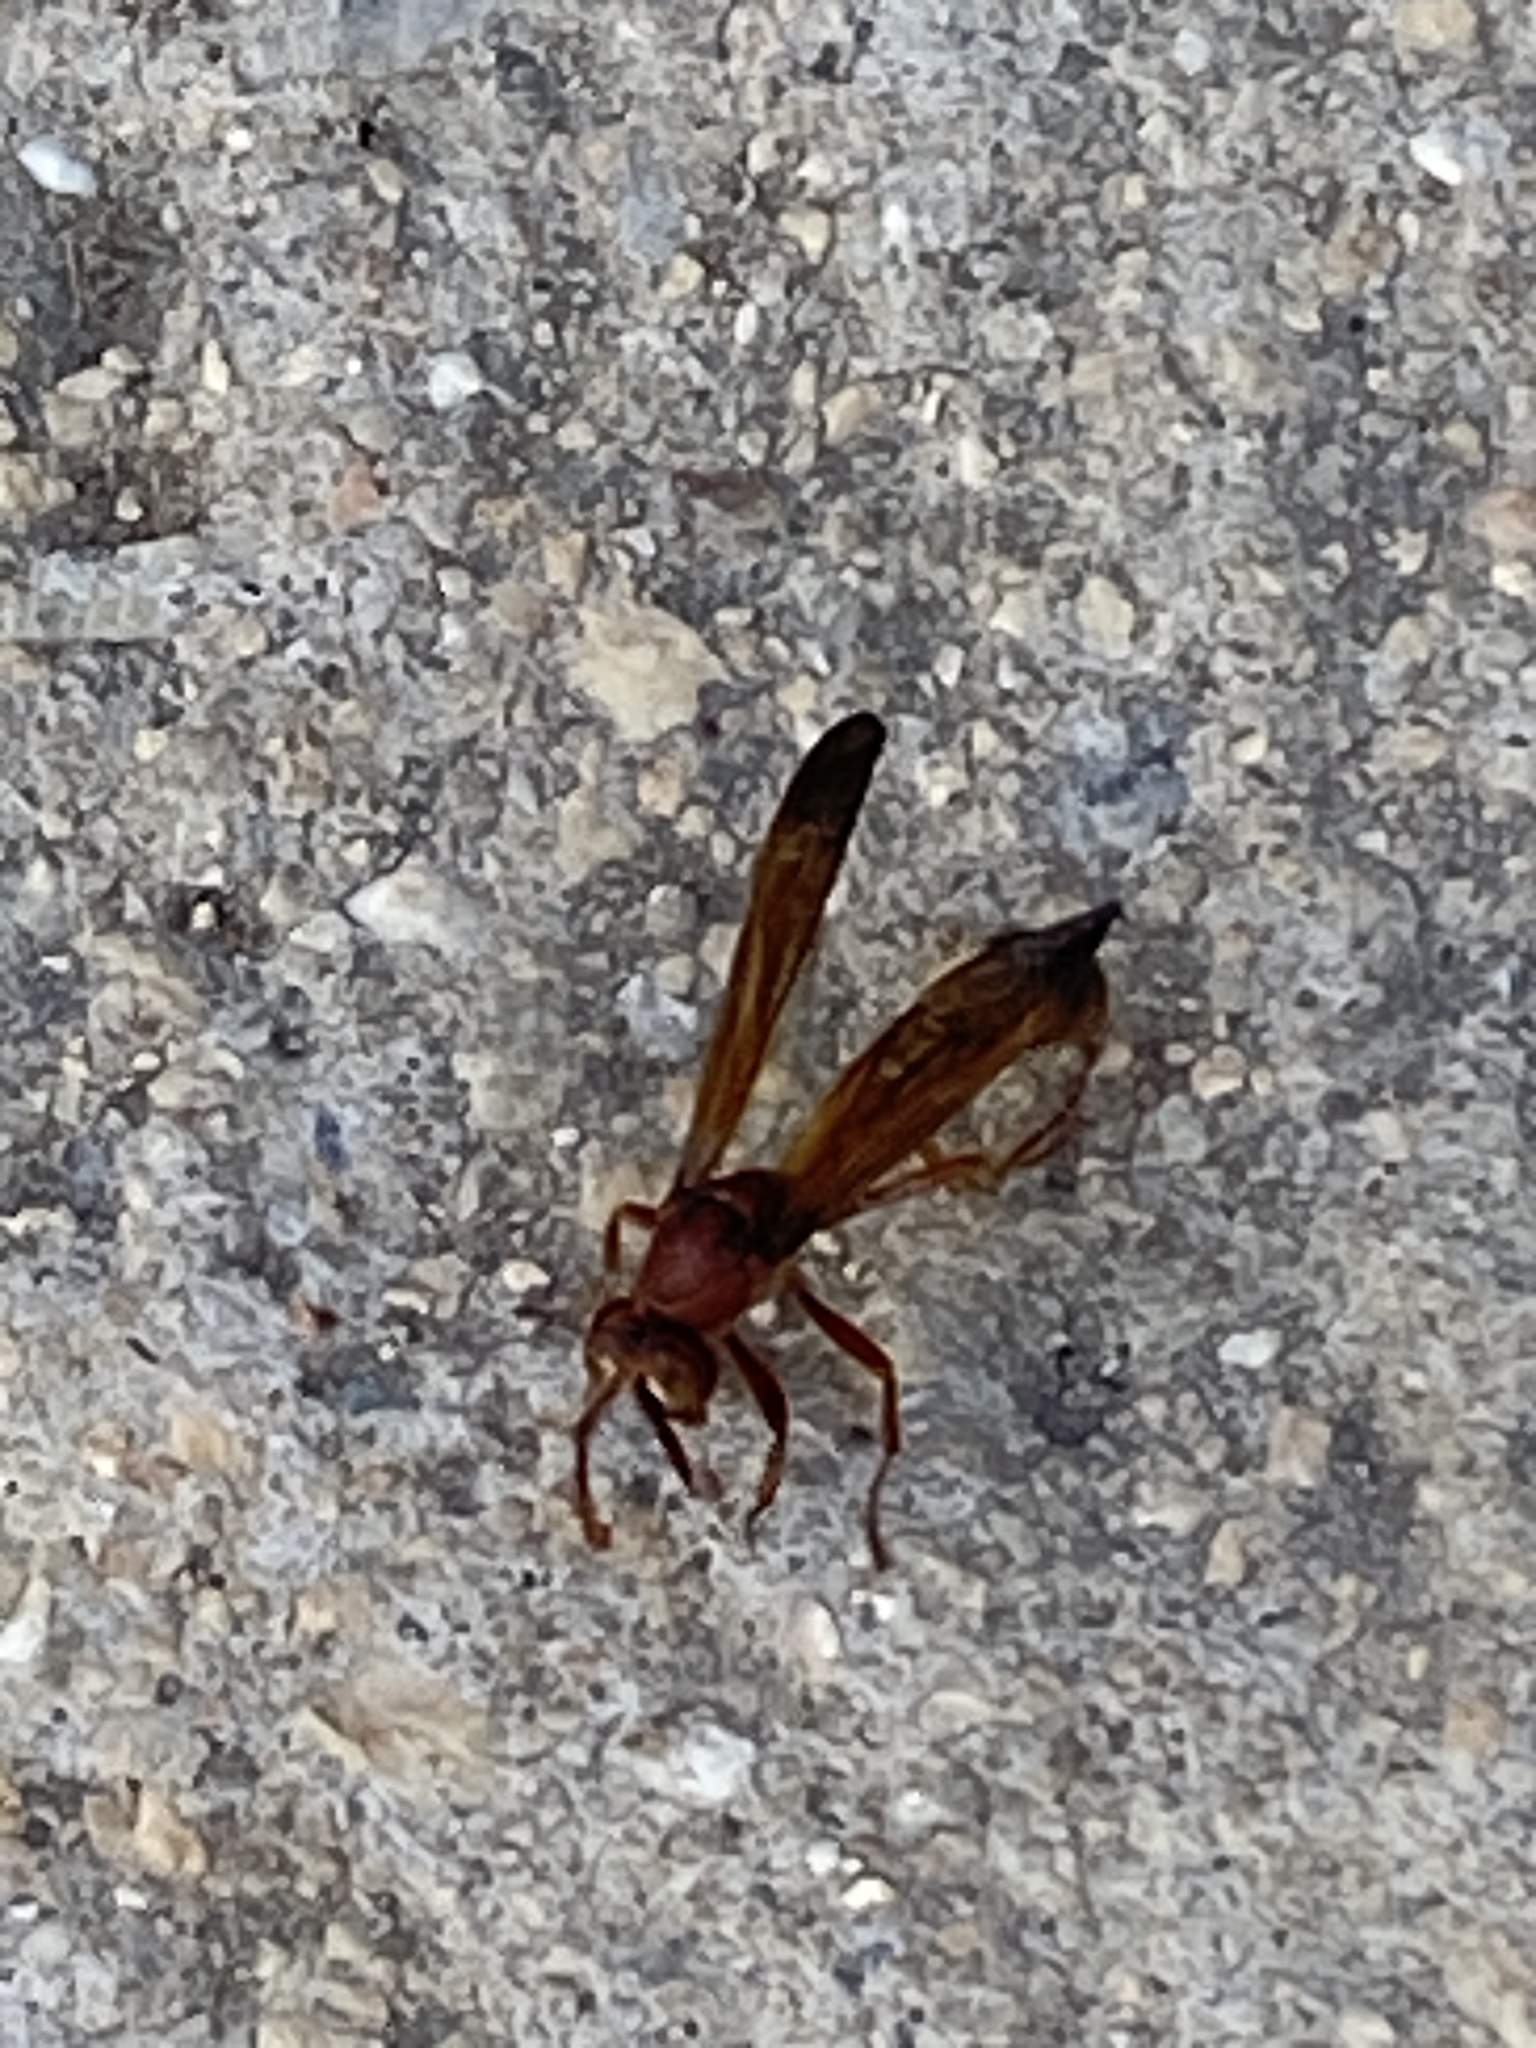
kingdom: Animalia
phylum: Arthropoda
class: Insecta
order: Hymenoptera
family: Eumenidae
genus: Belonogaster
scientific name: Belonogaster lateritius
